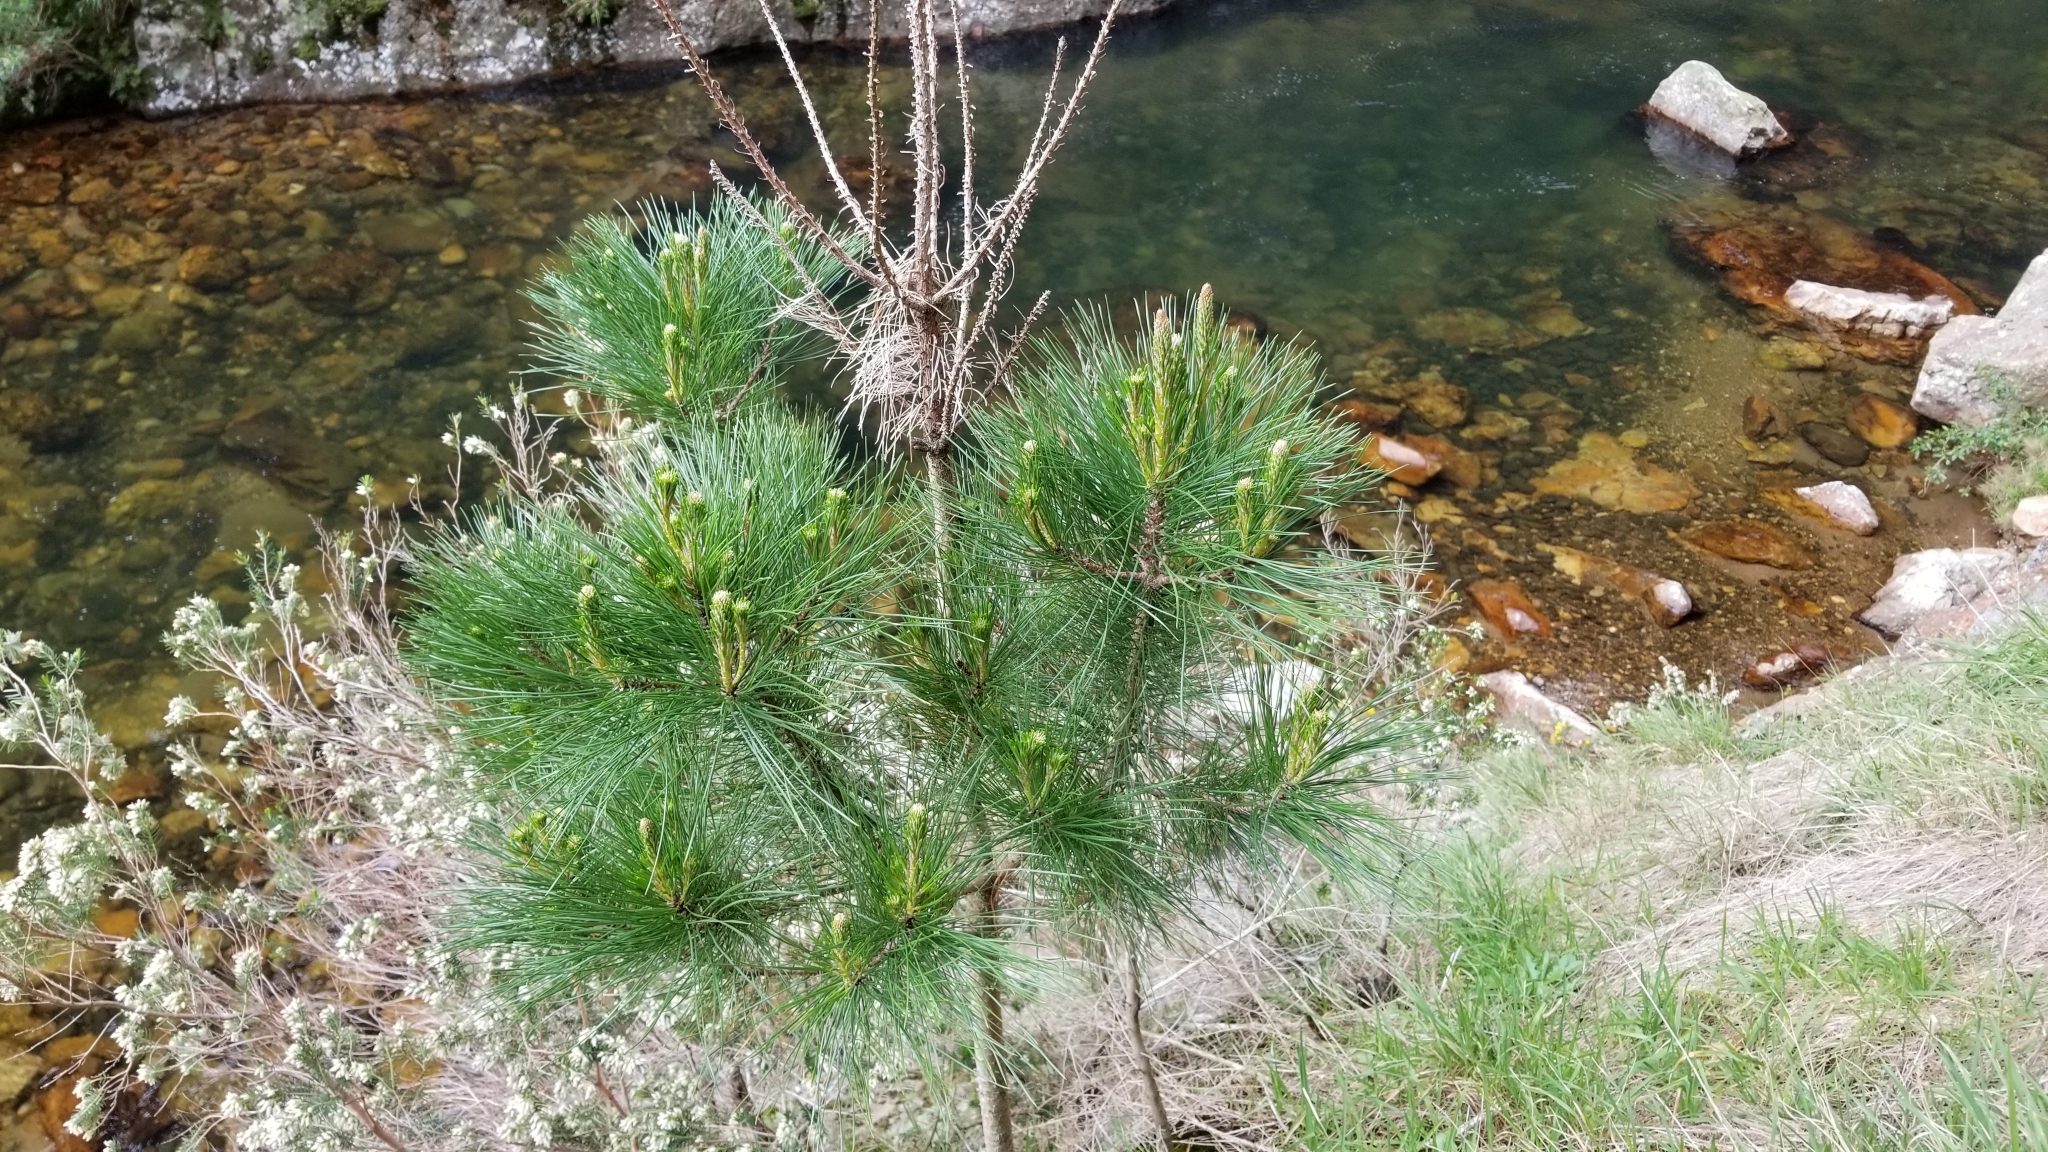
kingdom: Plantae
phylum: Tracheophyta
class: Pinopsida
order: Pinales
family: Pinaceae
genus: Pinus
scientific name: Pinus radiata
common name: Monterey pine
